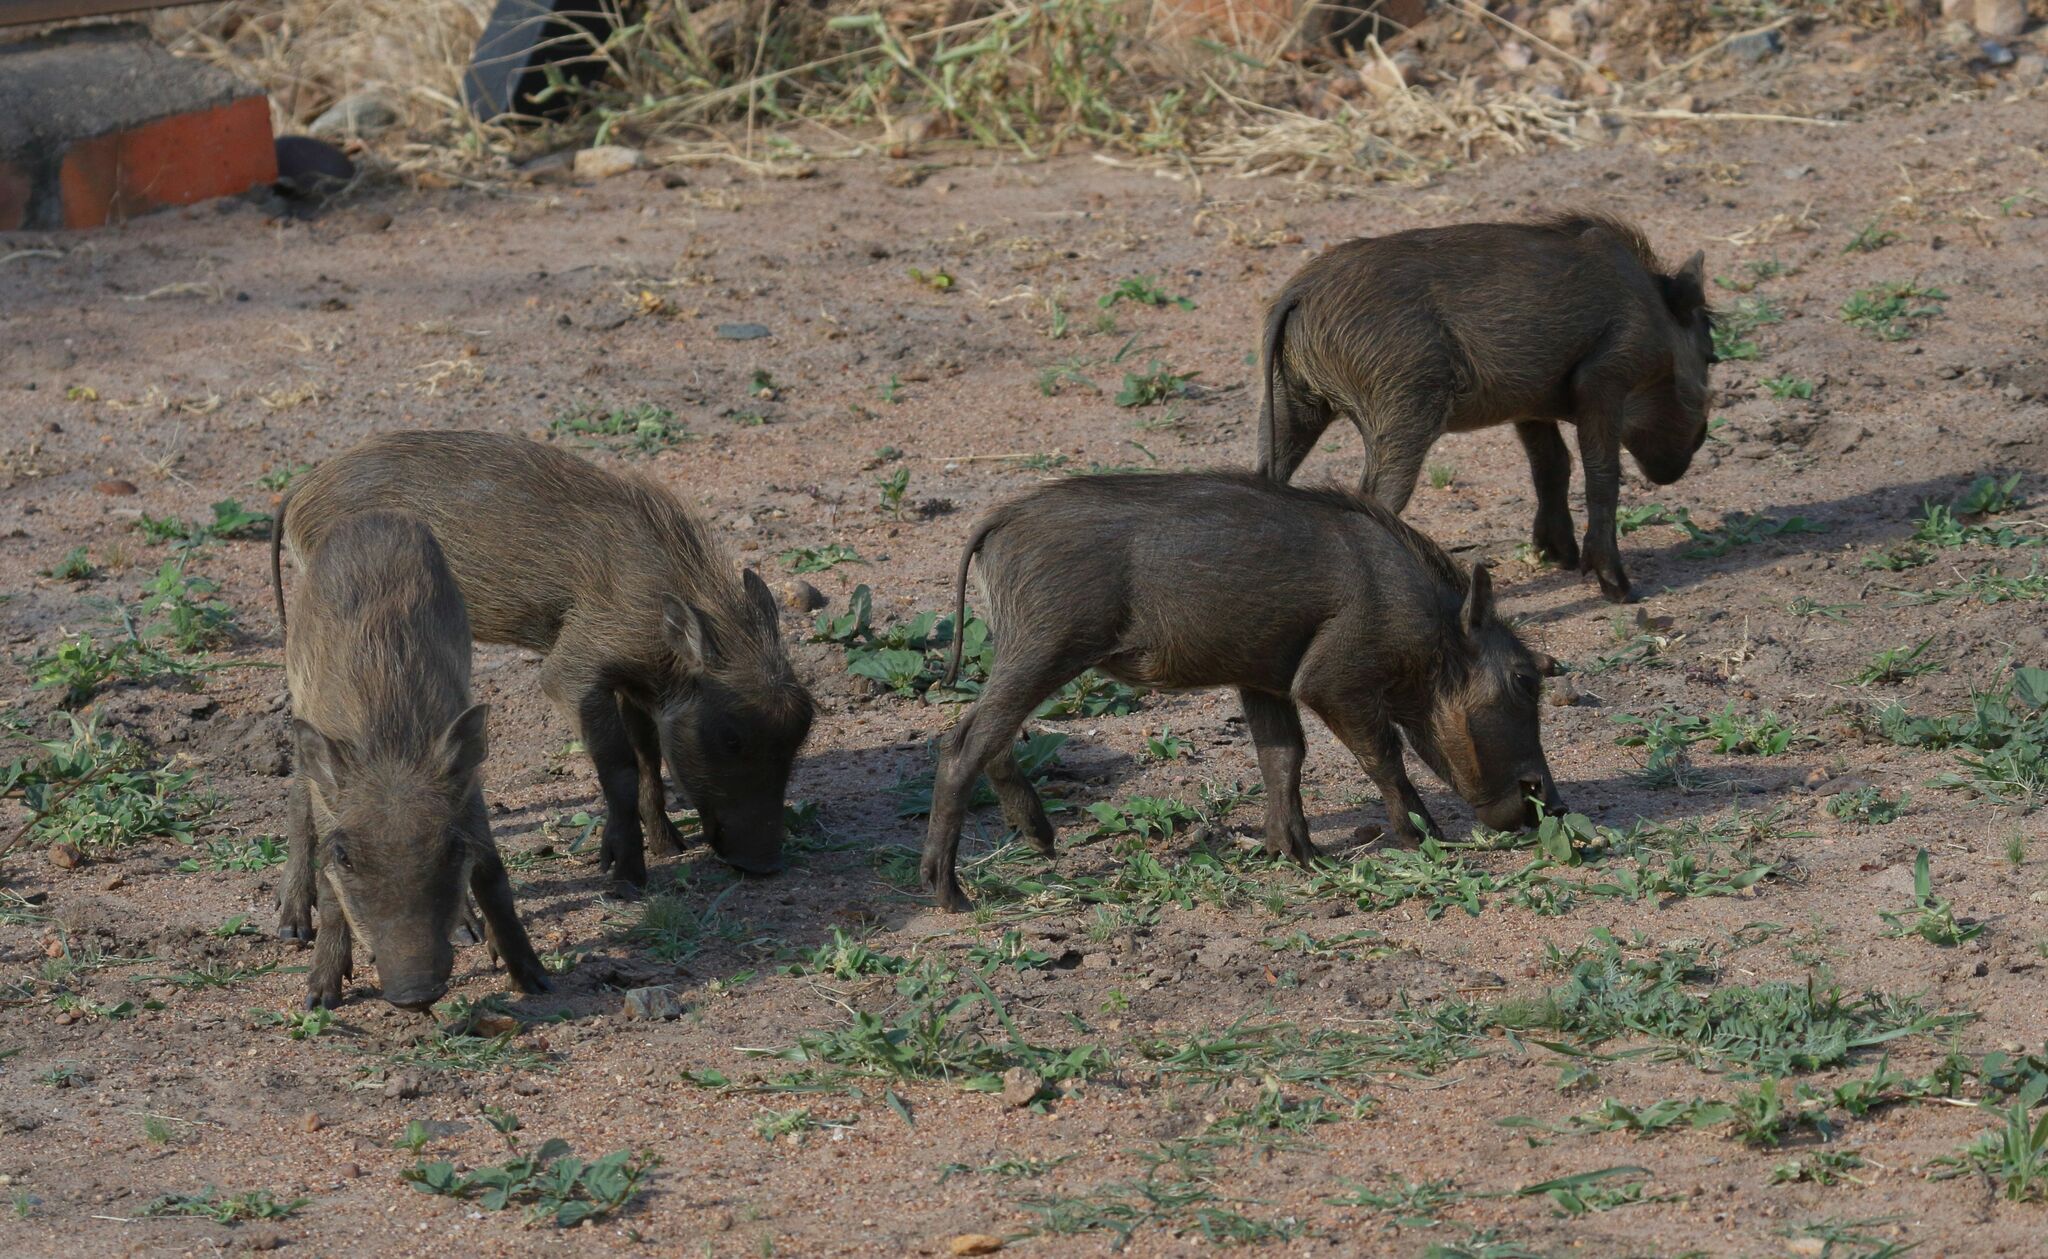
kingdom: Animalia
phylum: Chordata
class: Mammalia
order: Artiodactyla
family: Suidae
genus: Phacochoerus
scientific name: Phacochoerus africanus
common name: Common warthog
